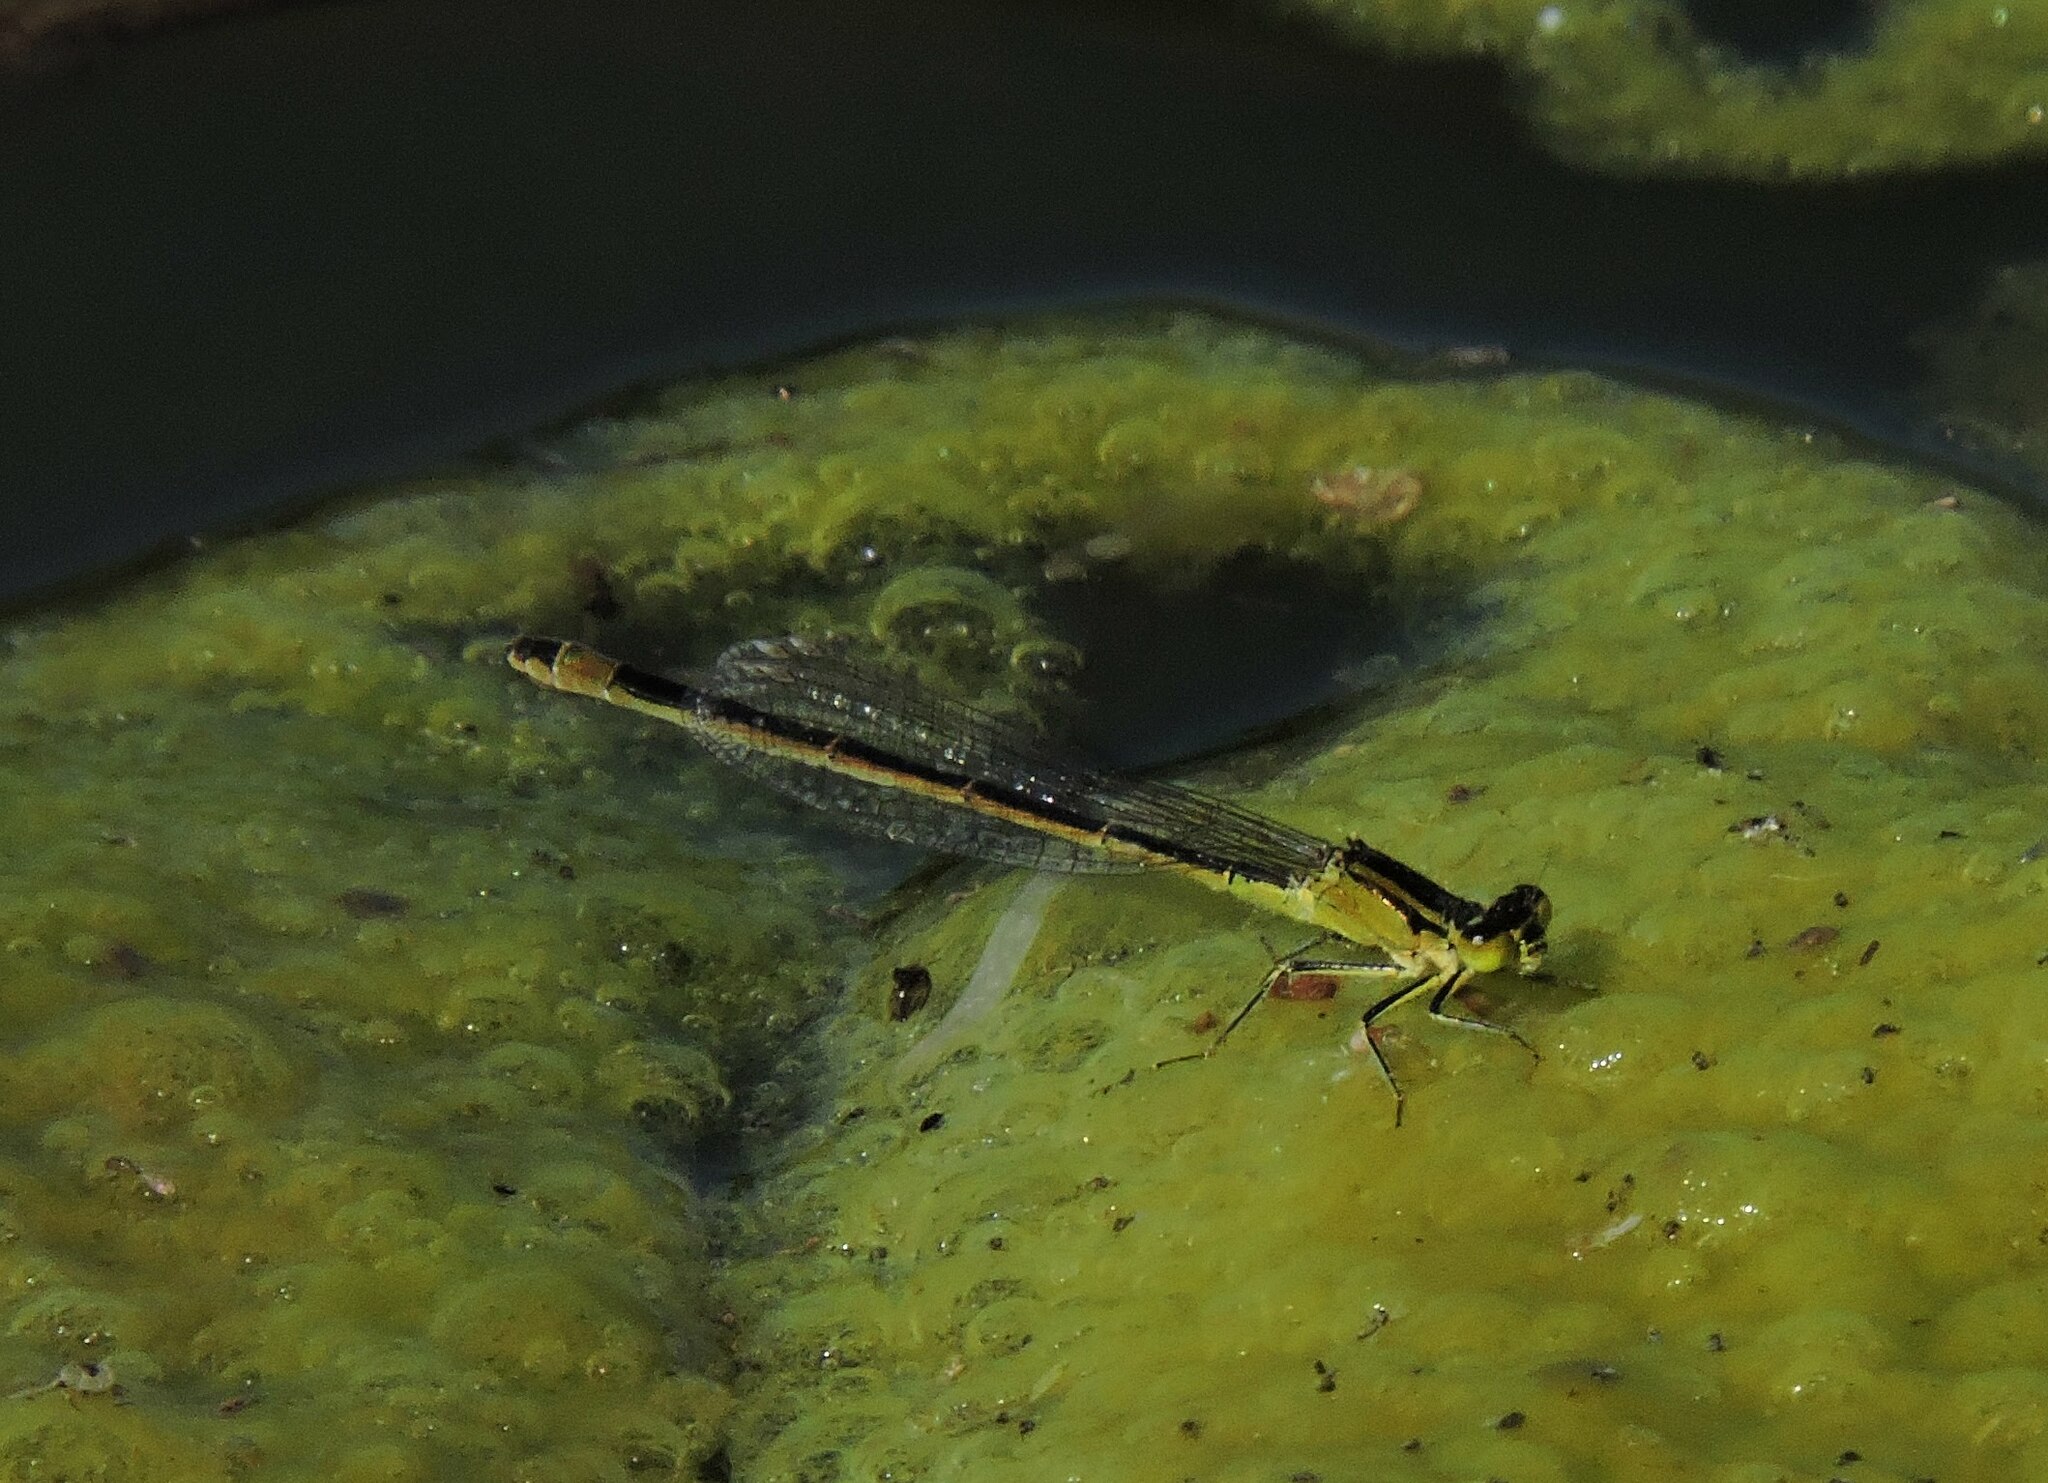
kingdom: Animalia
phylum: Arthropoda
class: Insecta
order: Odonata
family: Coenagrionidae
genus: Ischnura
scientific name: Ischnura elegans
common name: Blue-tailed damselfly
